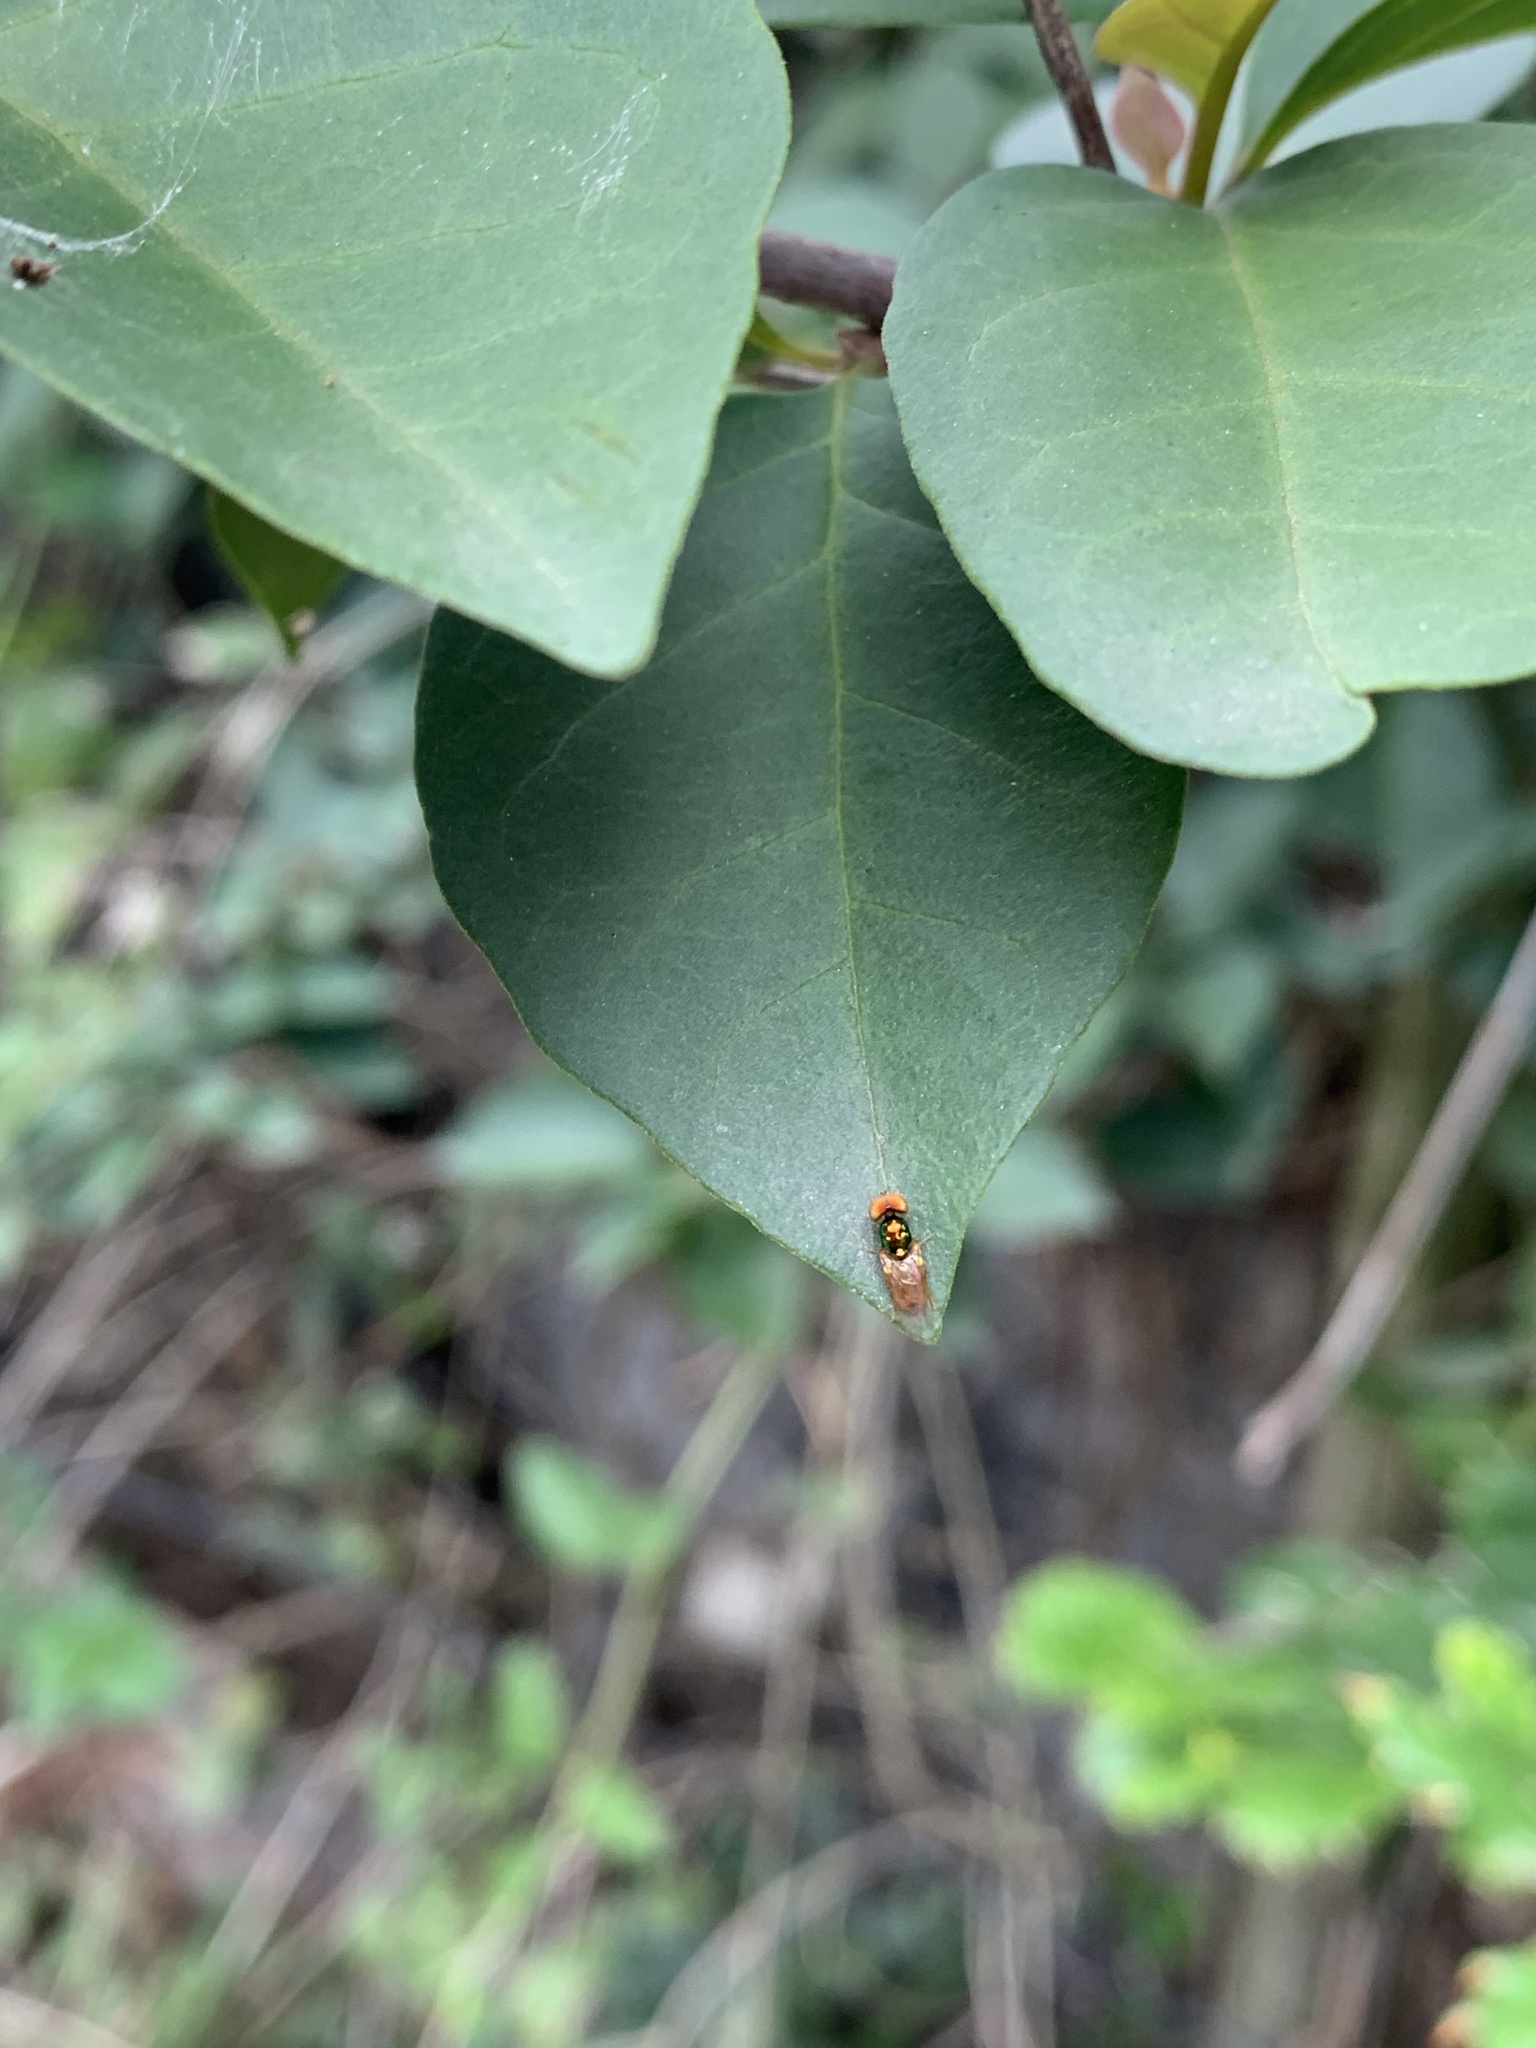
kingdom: Animalia
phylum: Arthropoda
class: Insecta
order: Diptera
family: Stratiomyidae
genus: Microchrysa
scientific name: Microchrysa bicolor
